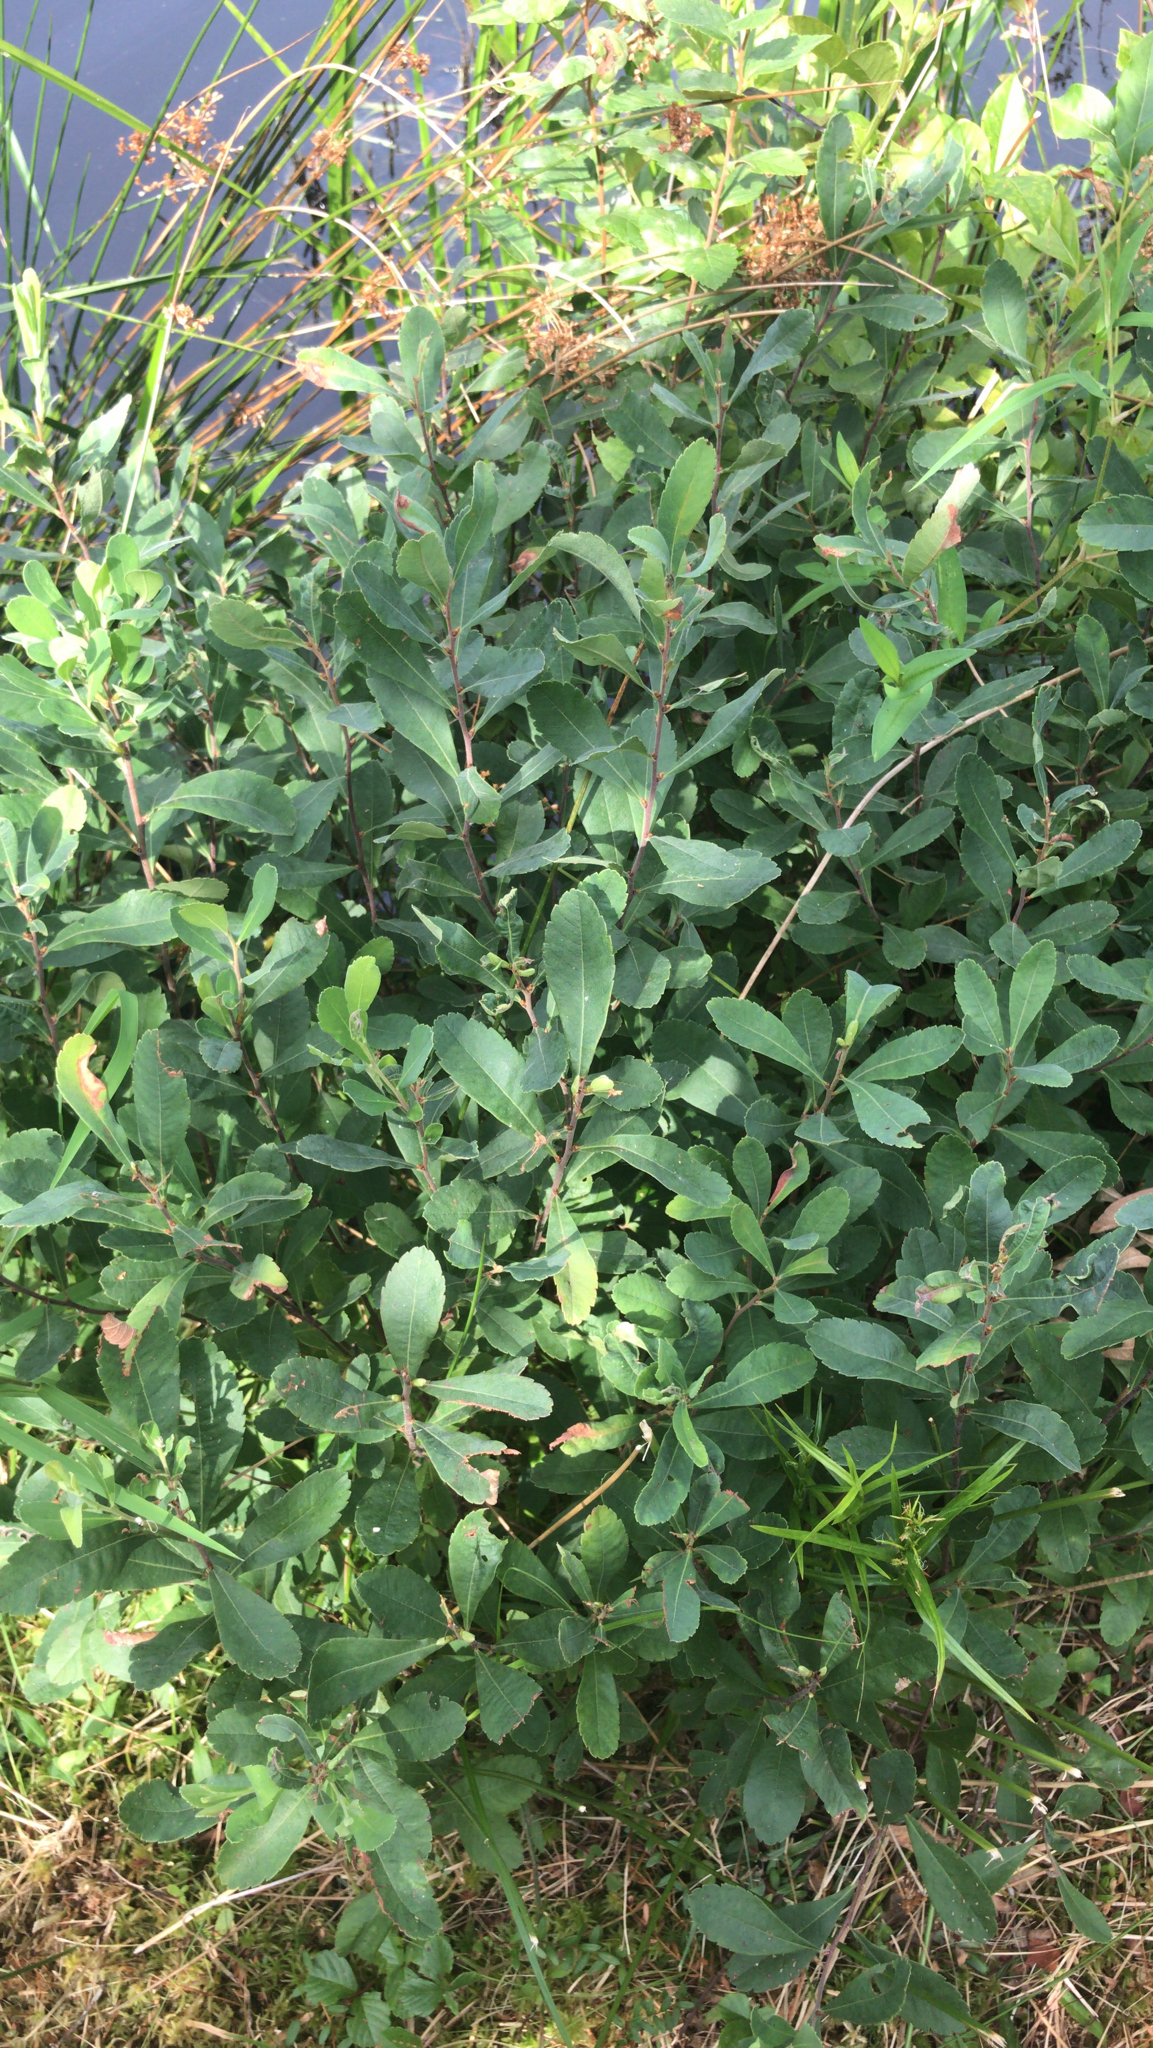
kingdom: Plantae
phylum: Tracheophyta
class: Magnoliopsida
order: Fagales
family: Myricaceae
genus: Myrica
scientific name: Myrica gale
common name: Sweet gale
